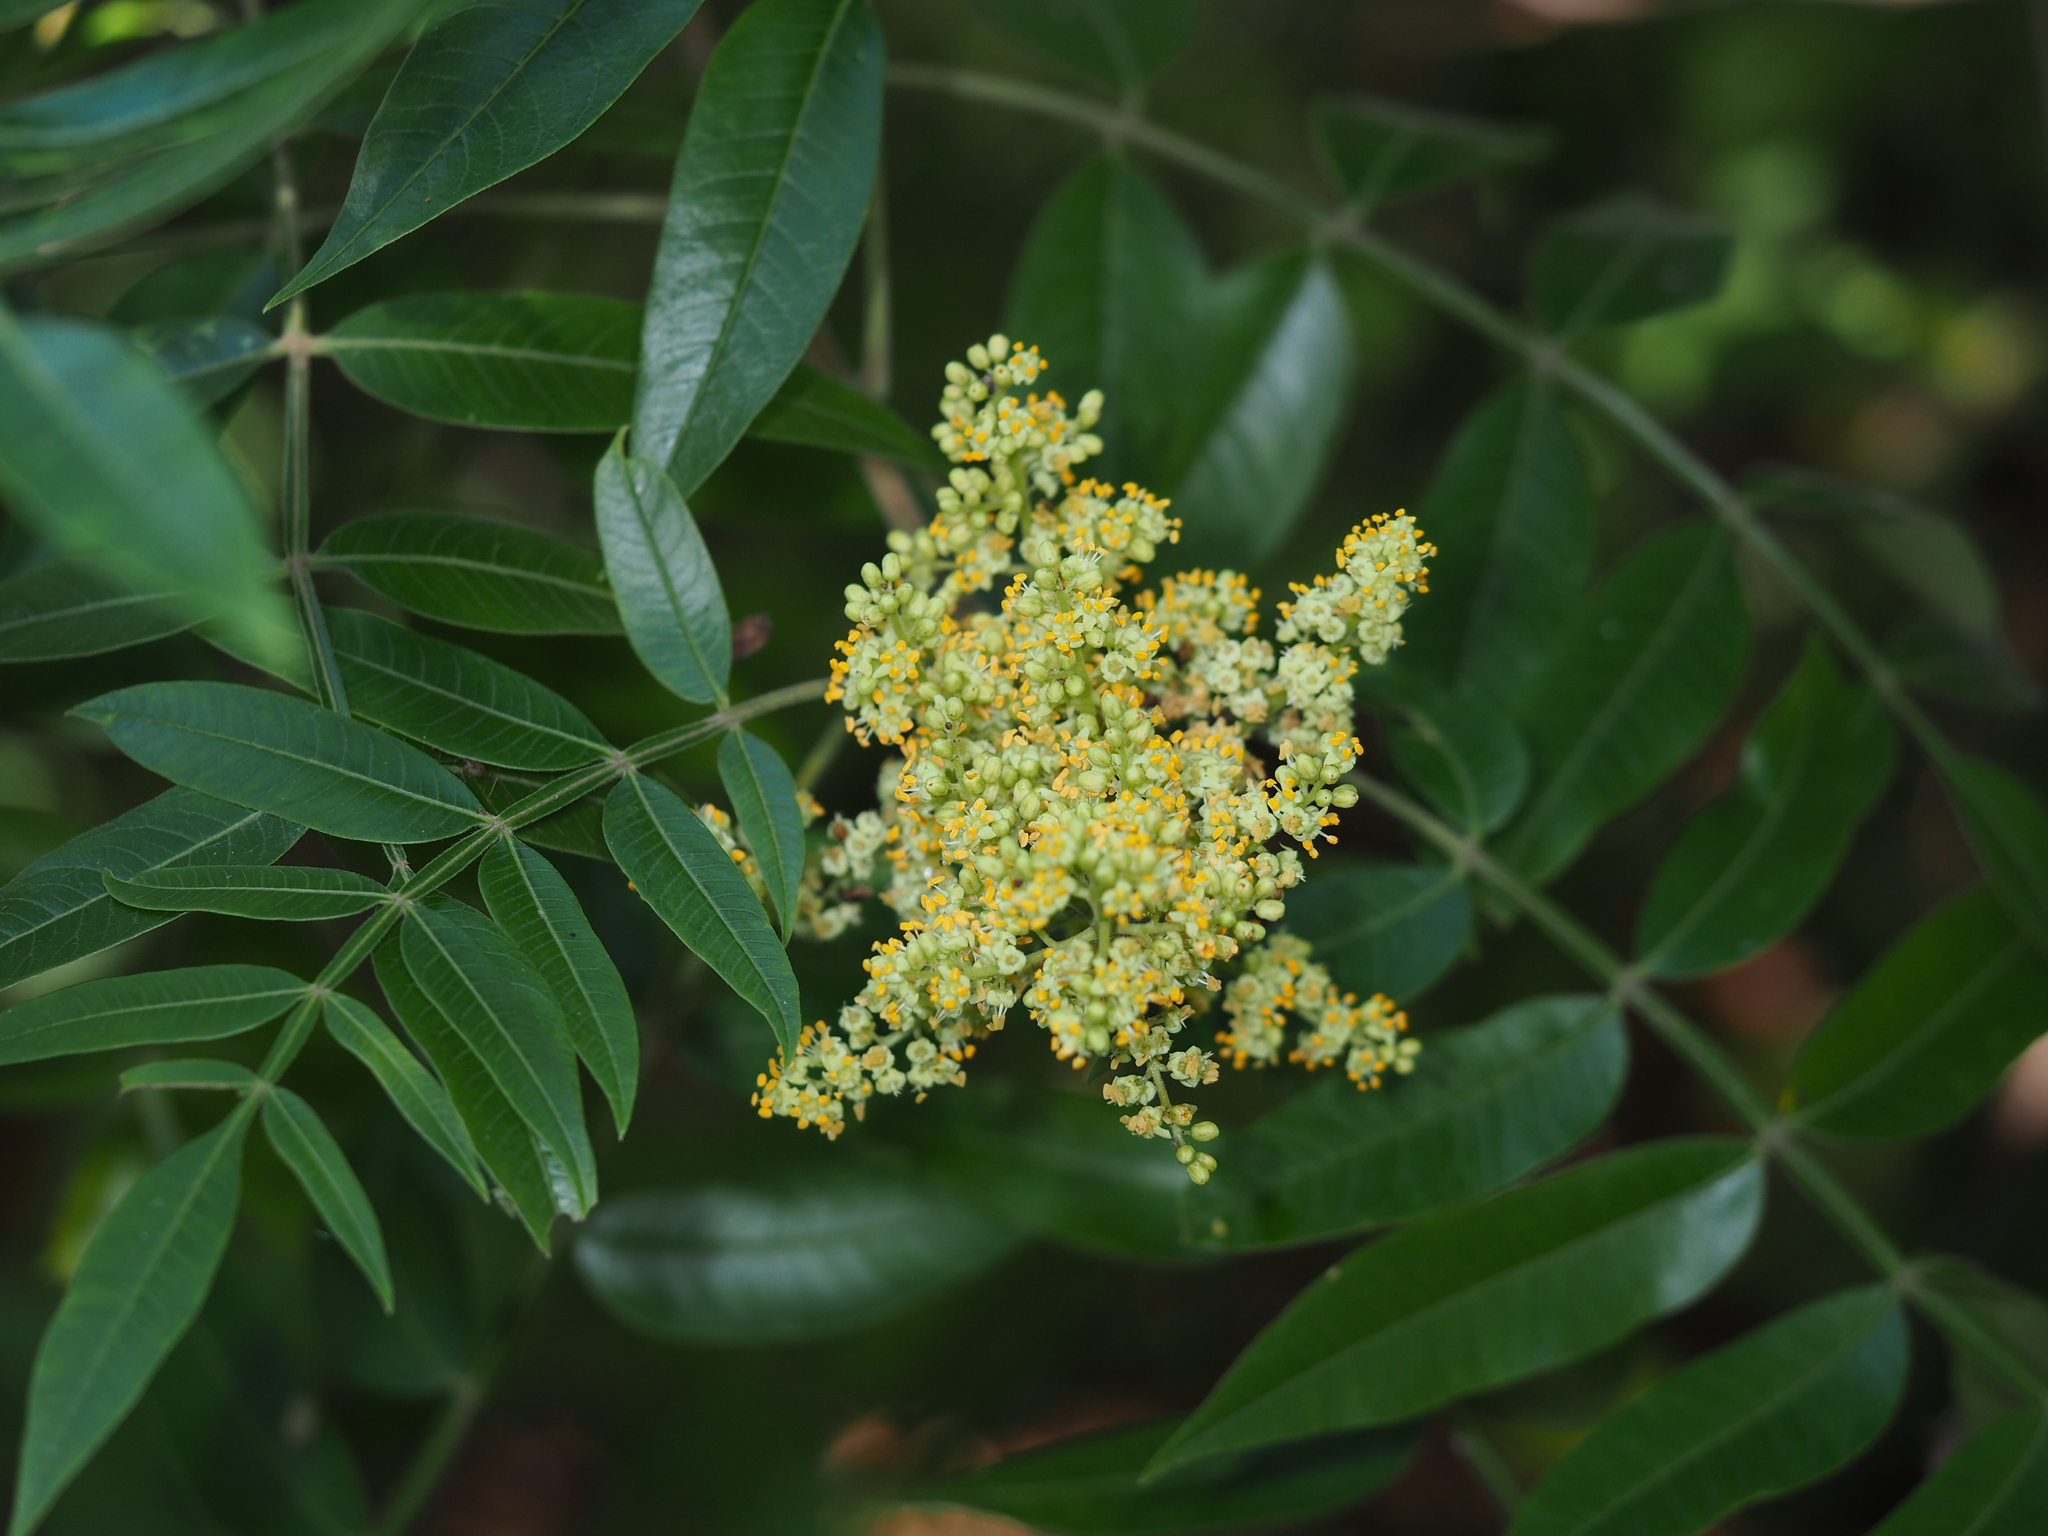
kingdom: Plantae
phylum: Tracheophyta
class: Magnoliopsida
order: Sapindales
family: Anacardiaceae
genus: Rhus
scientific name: Rhus copallina
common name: Shining sumac
